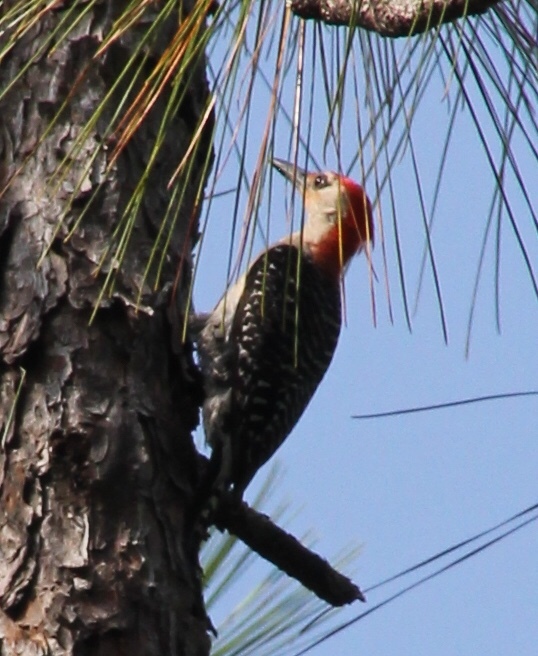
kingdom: Animalia
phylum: Chordata
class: Aves
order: Piciformes
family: Picidae
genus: Melanerpes
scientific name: Melanerpes carolinus
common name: Red-bellied woodpecker
